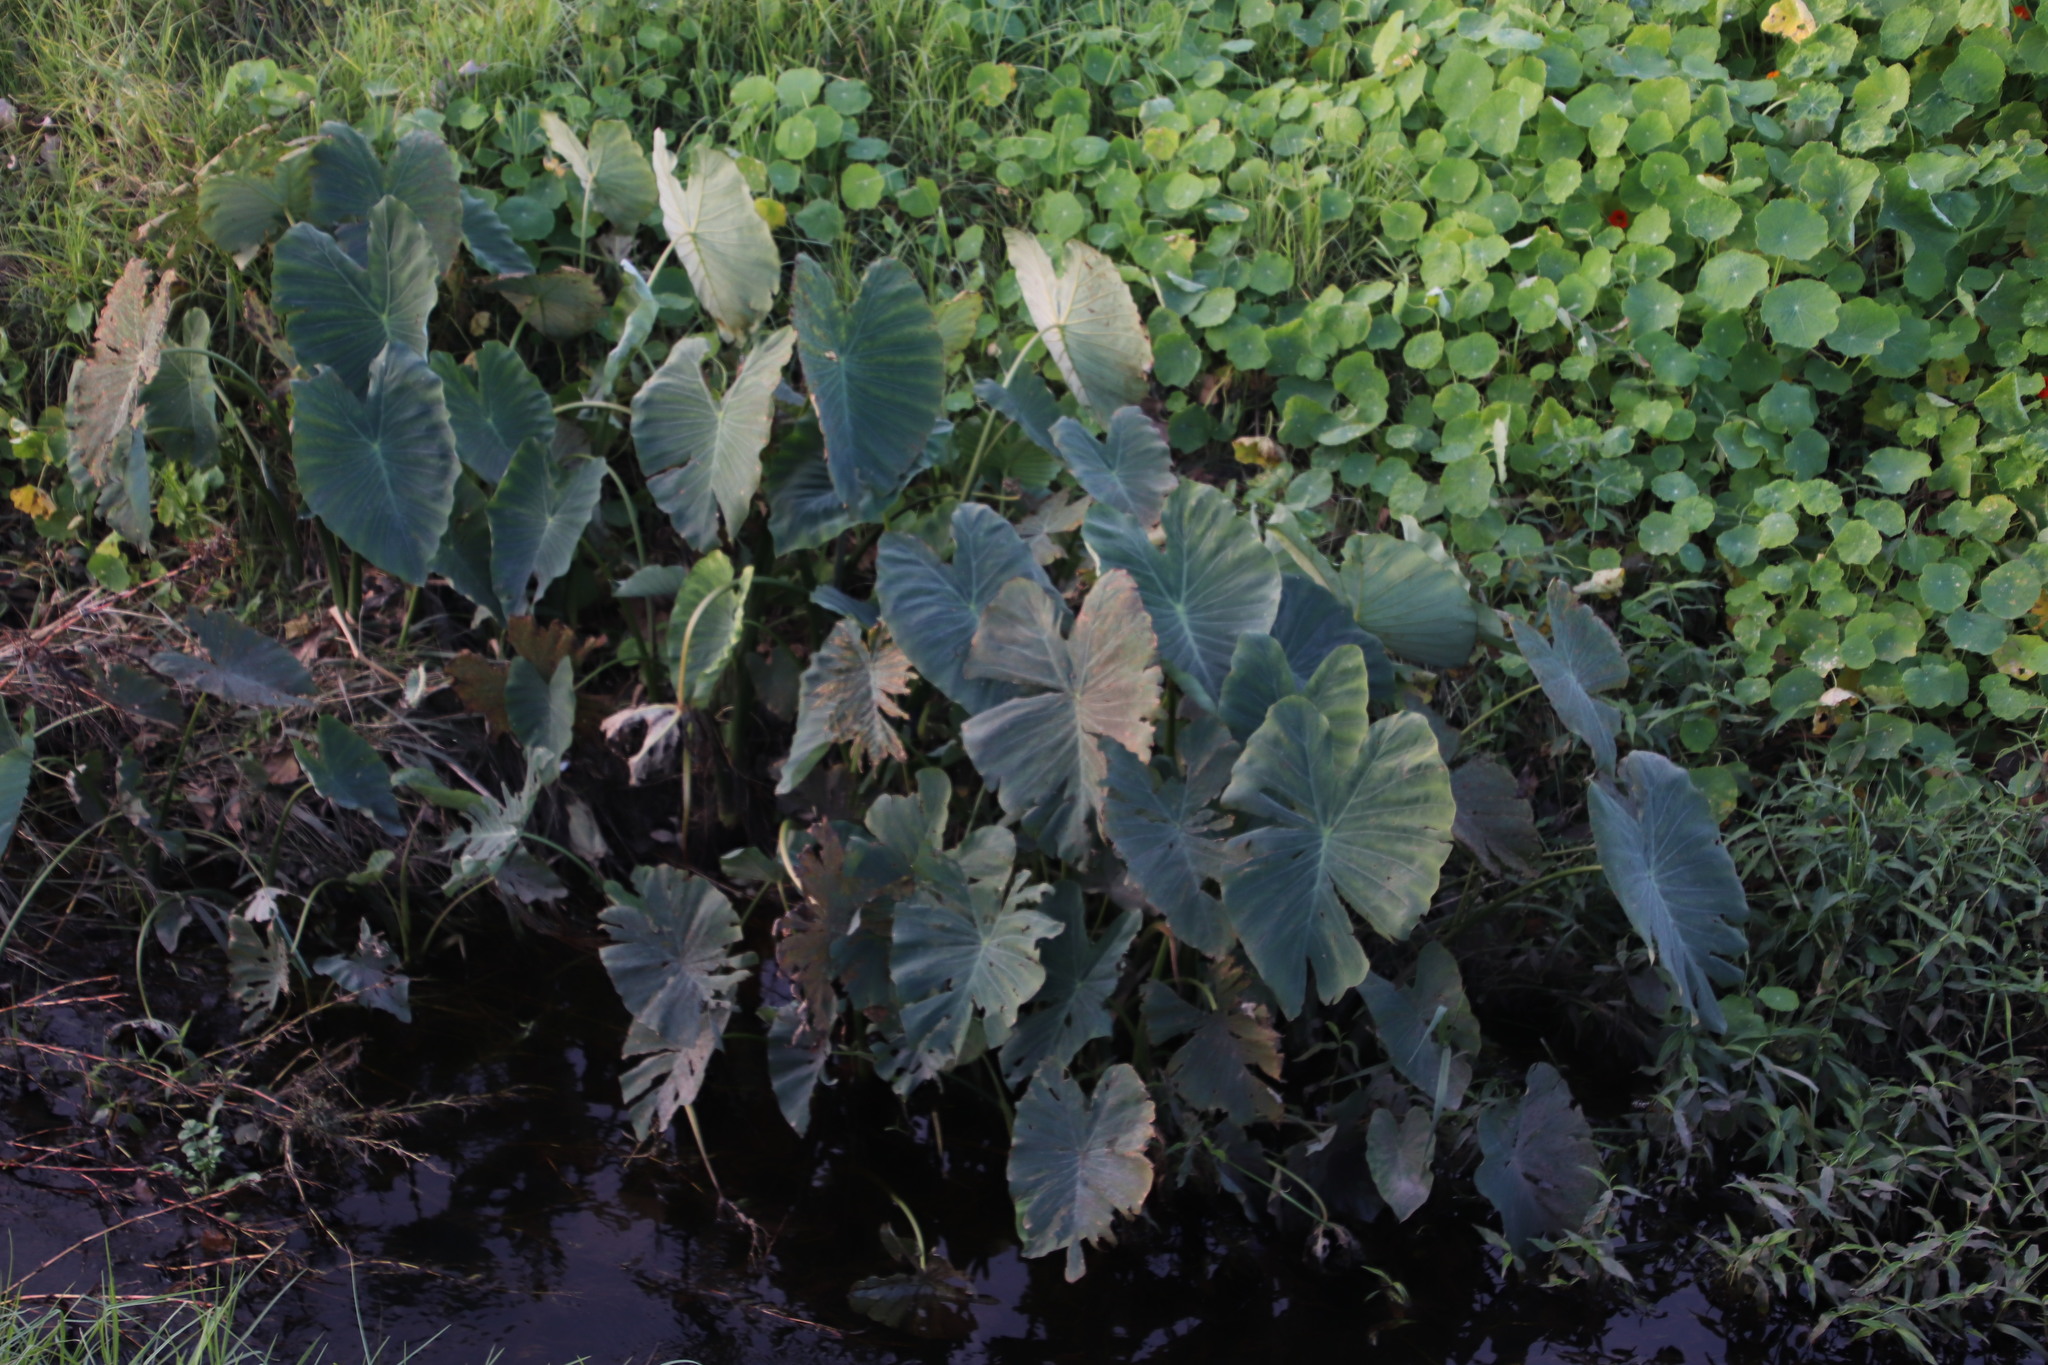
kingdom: Plantae
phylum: Tracheophyta
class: Liliopsida
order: Alismatales
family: Araceae
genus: Colocasia
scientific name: Colocasia esculenta
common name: Taro
